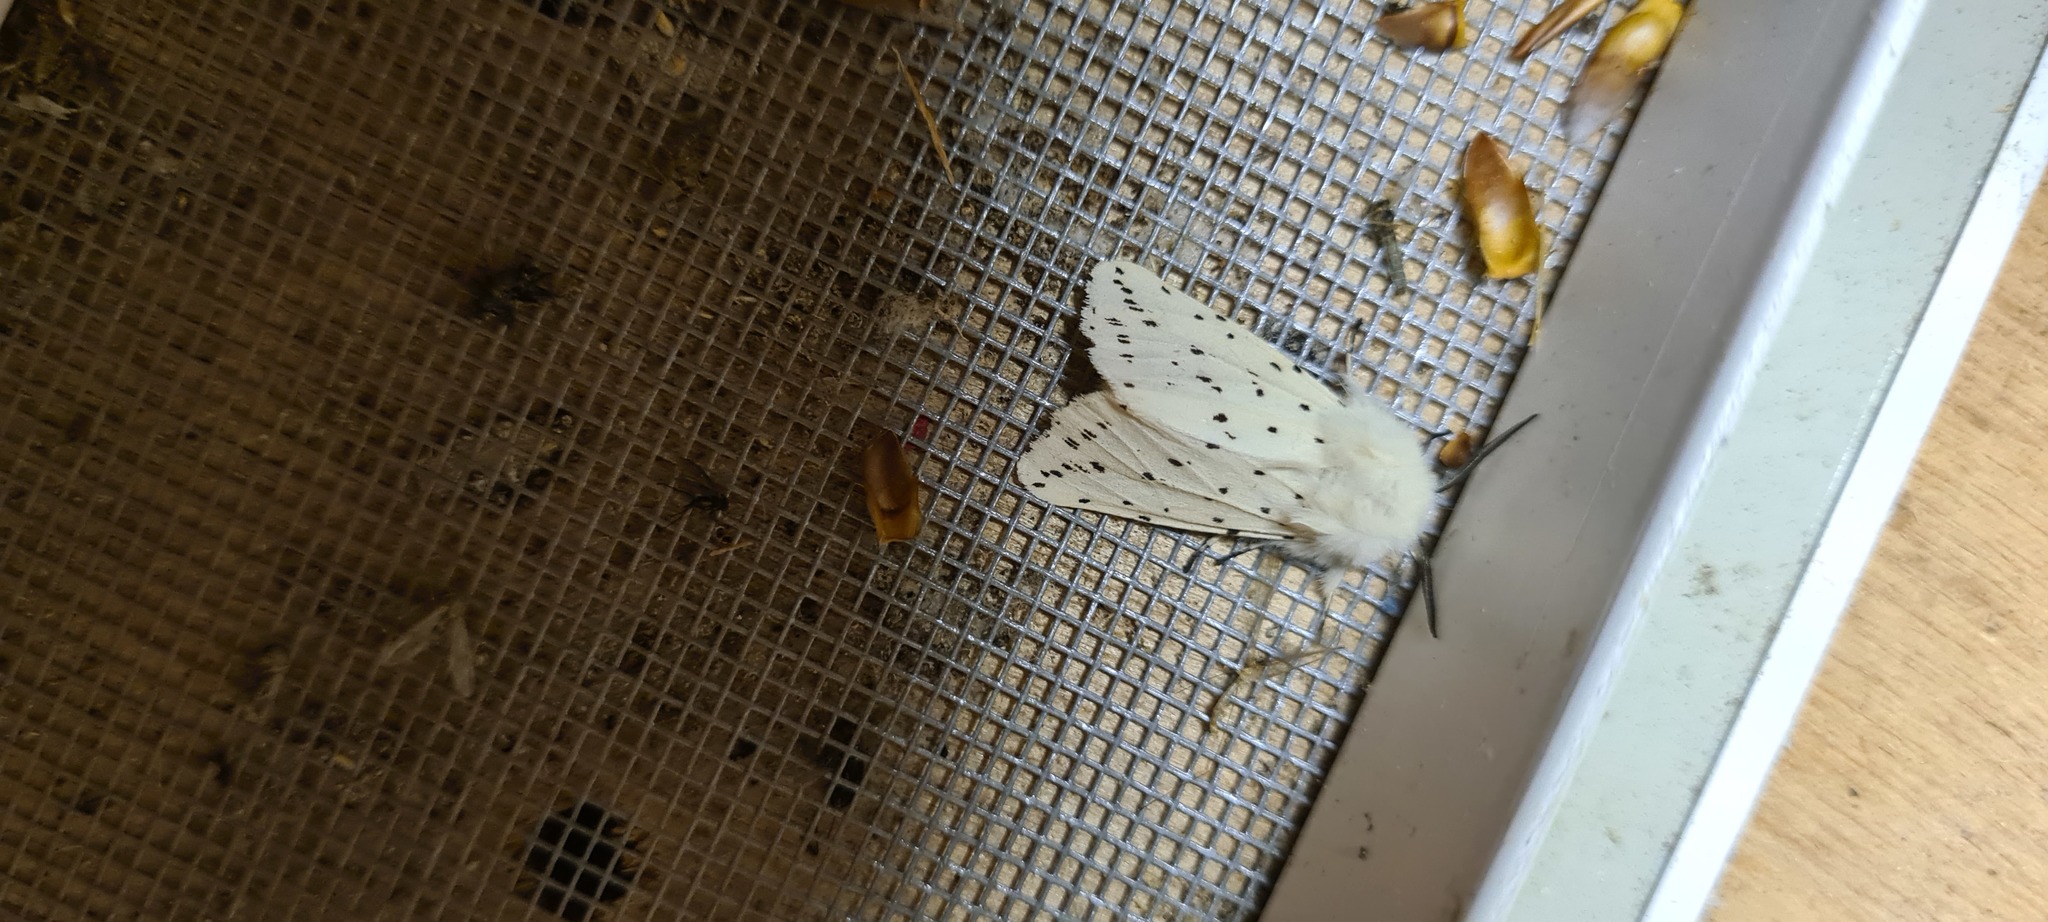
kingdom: Animalia
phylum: Arthropoda
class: Insecta
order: Lepidoptera
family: Erebidae
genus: Spilosoma
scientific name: Spilosoma lubricipeda
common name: White ermine
